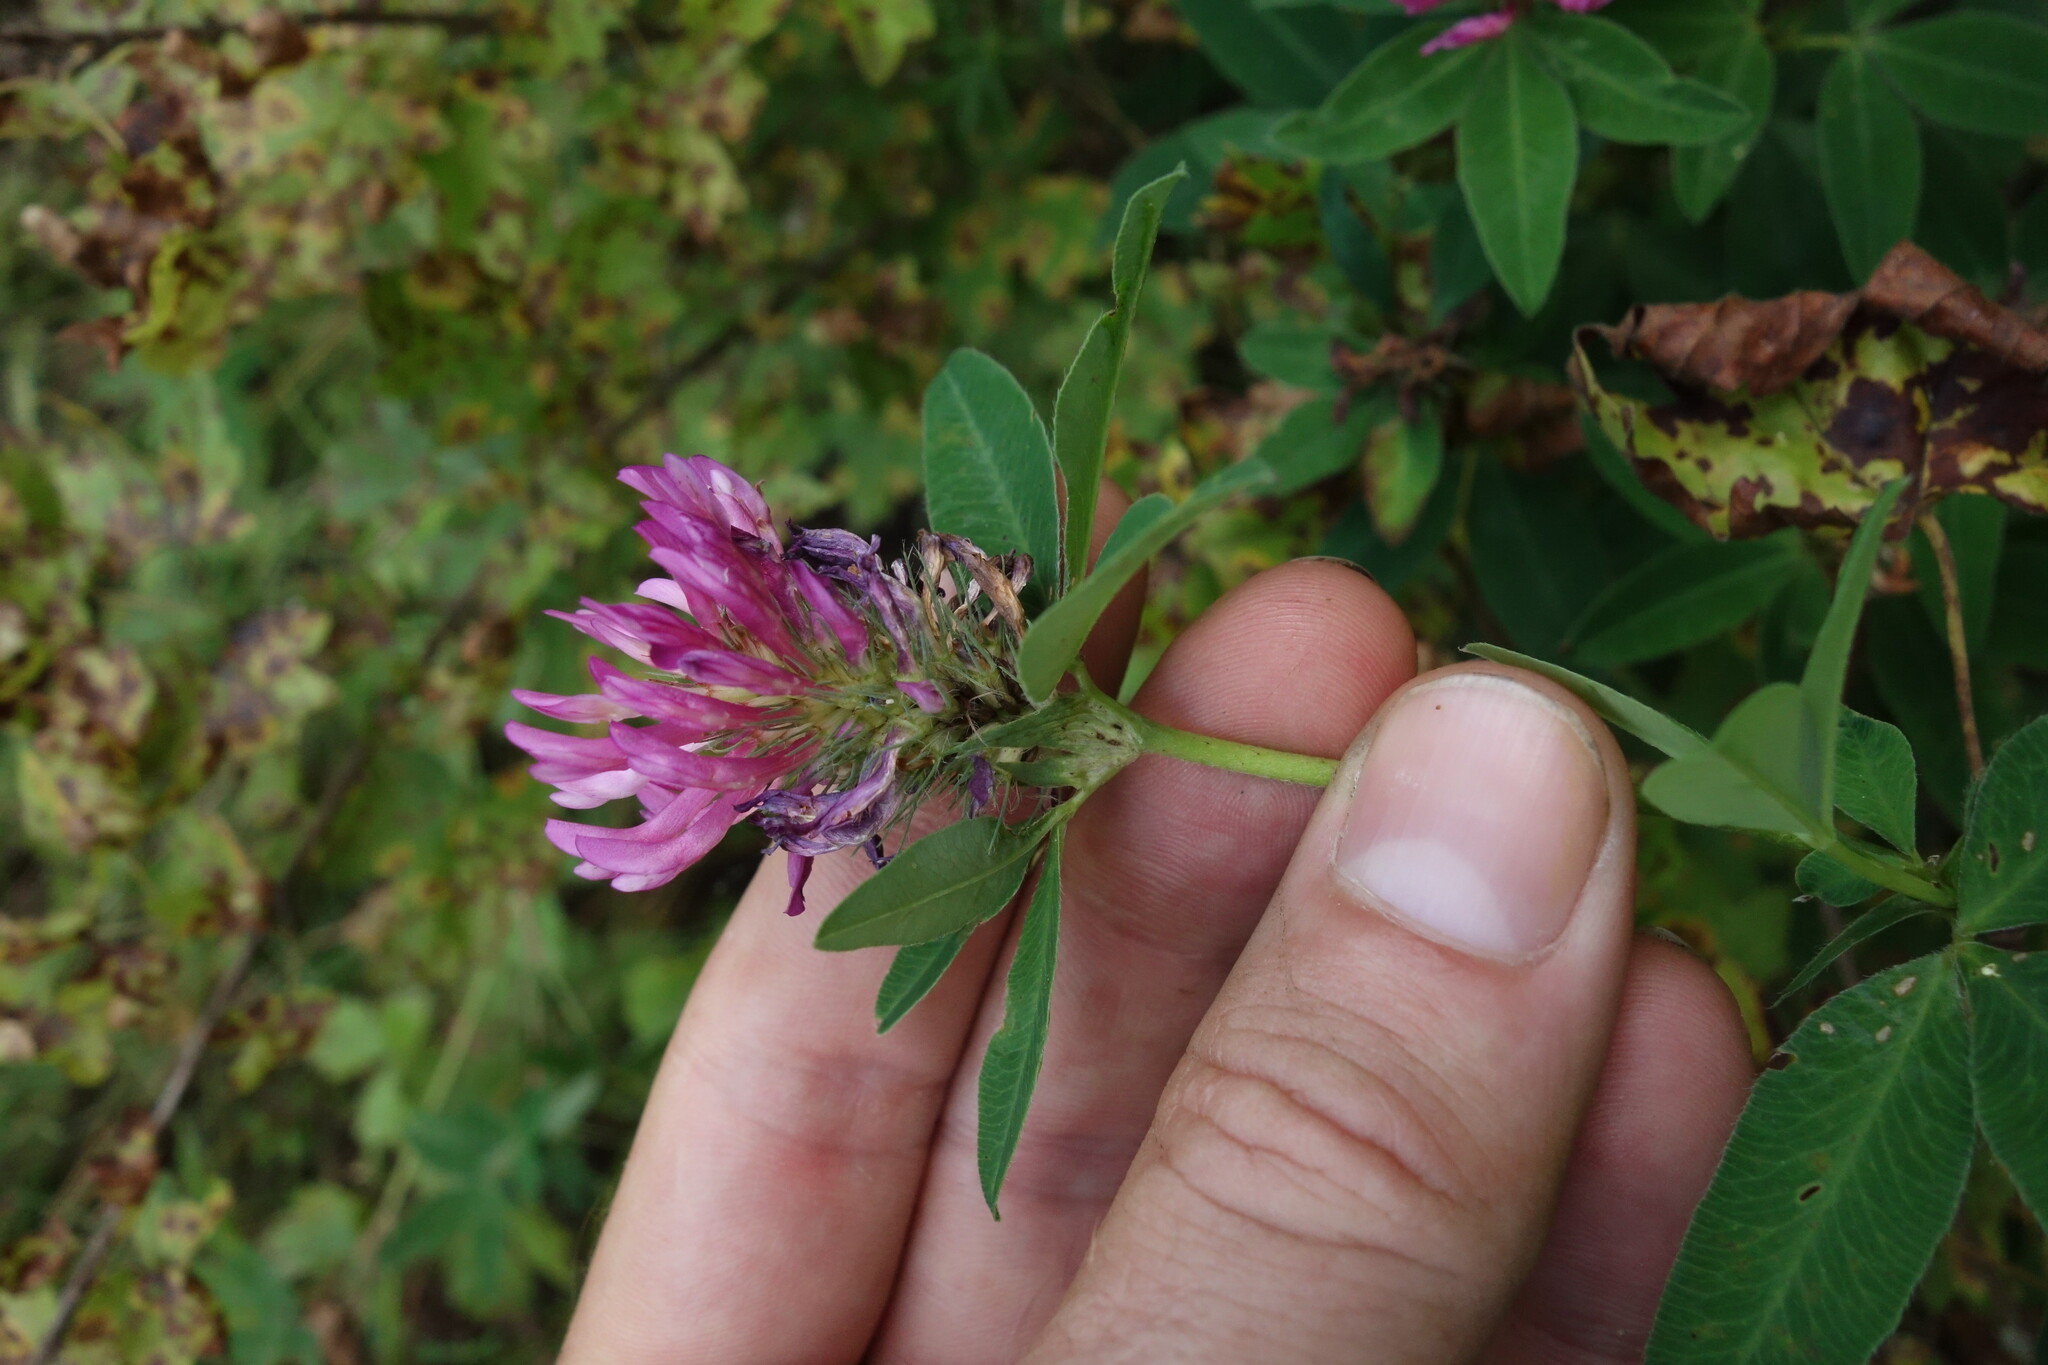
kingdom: Plantae
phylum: Tracheophyta
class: Magnoliopsida
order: Fabales
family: Fabaceae
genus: Trifolium
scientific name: Trifolium medium
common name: Zigzag clover
